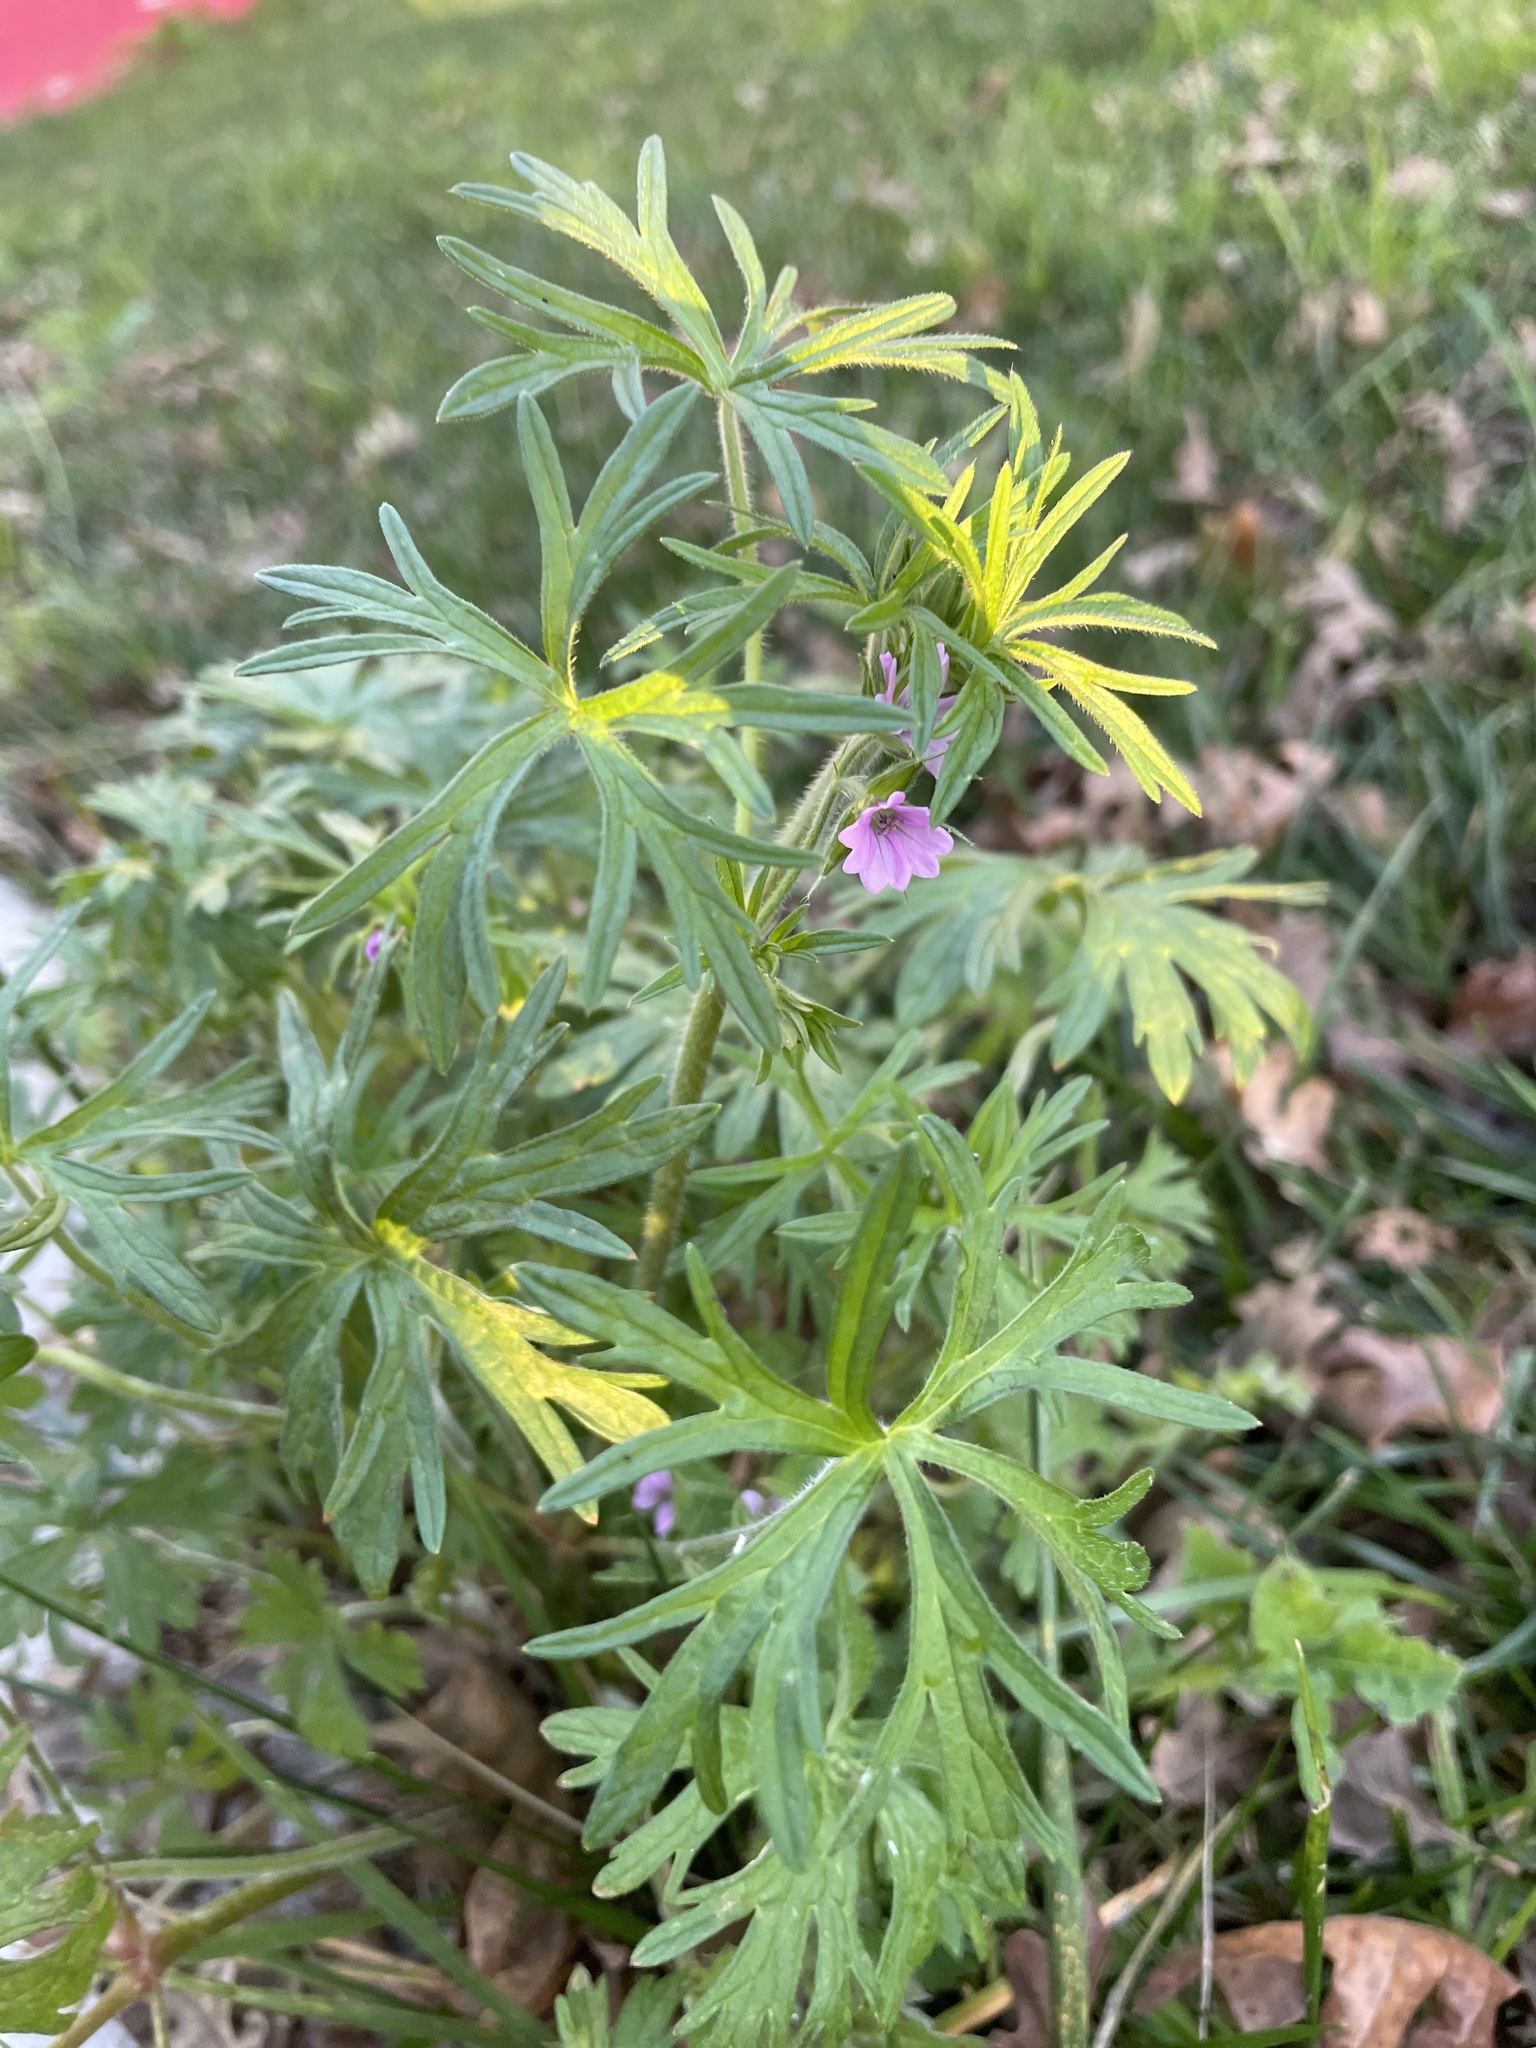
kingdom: Plantae
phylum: Tracheophyta
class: Magnoliopsida
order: Geraniales
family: Geraniaceae
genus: Geranium
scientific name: Geranium dissectum
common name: Cut-leaved crane's-bill
